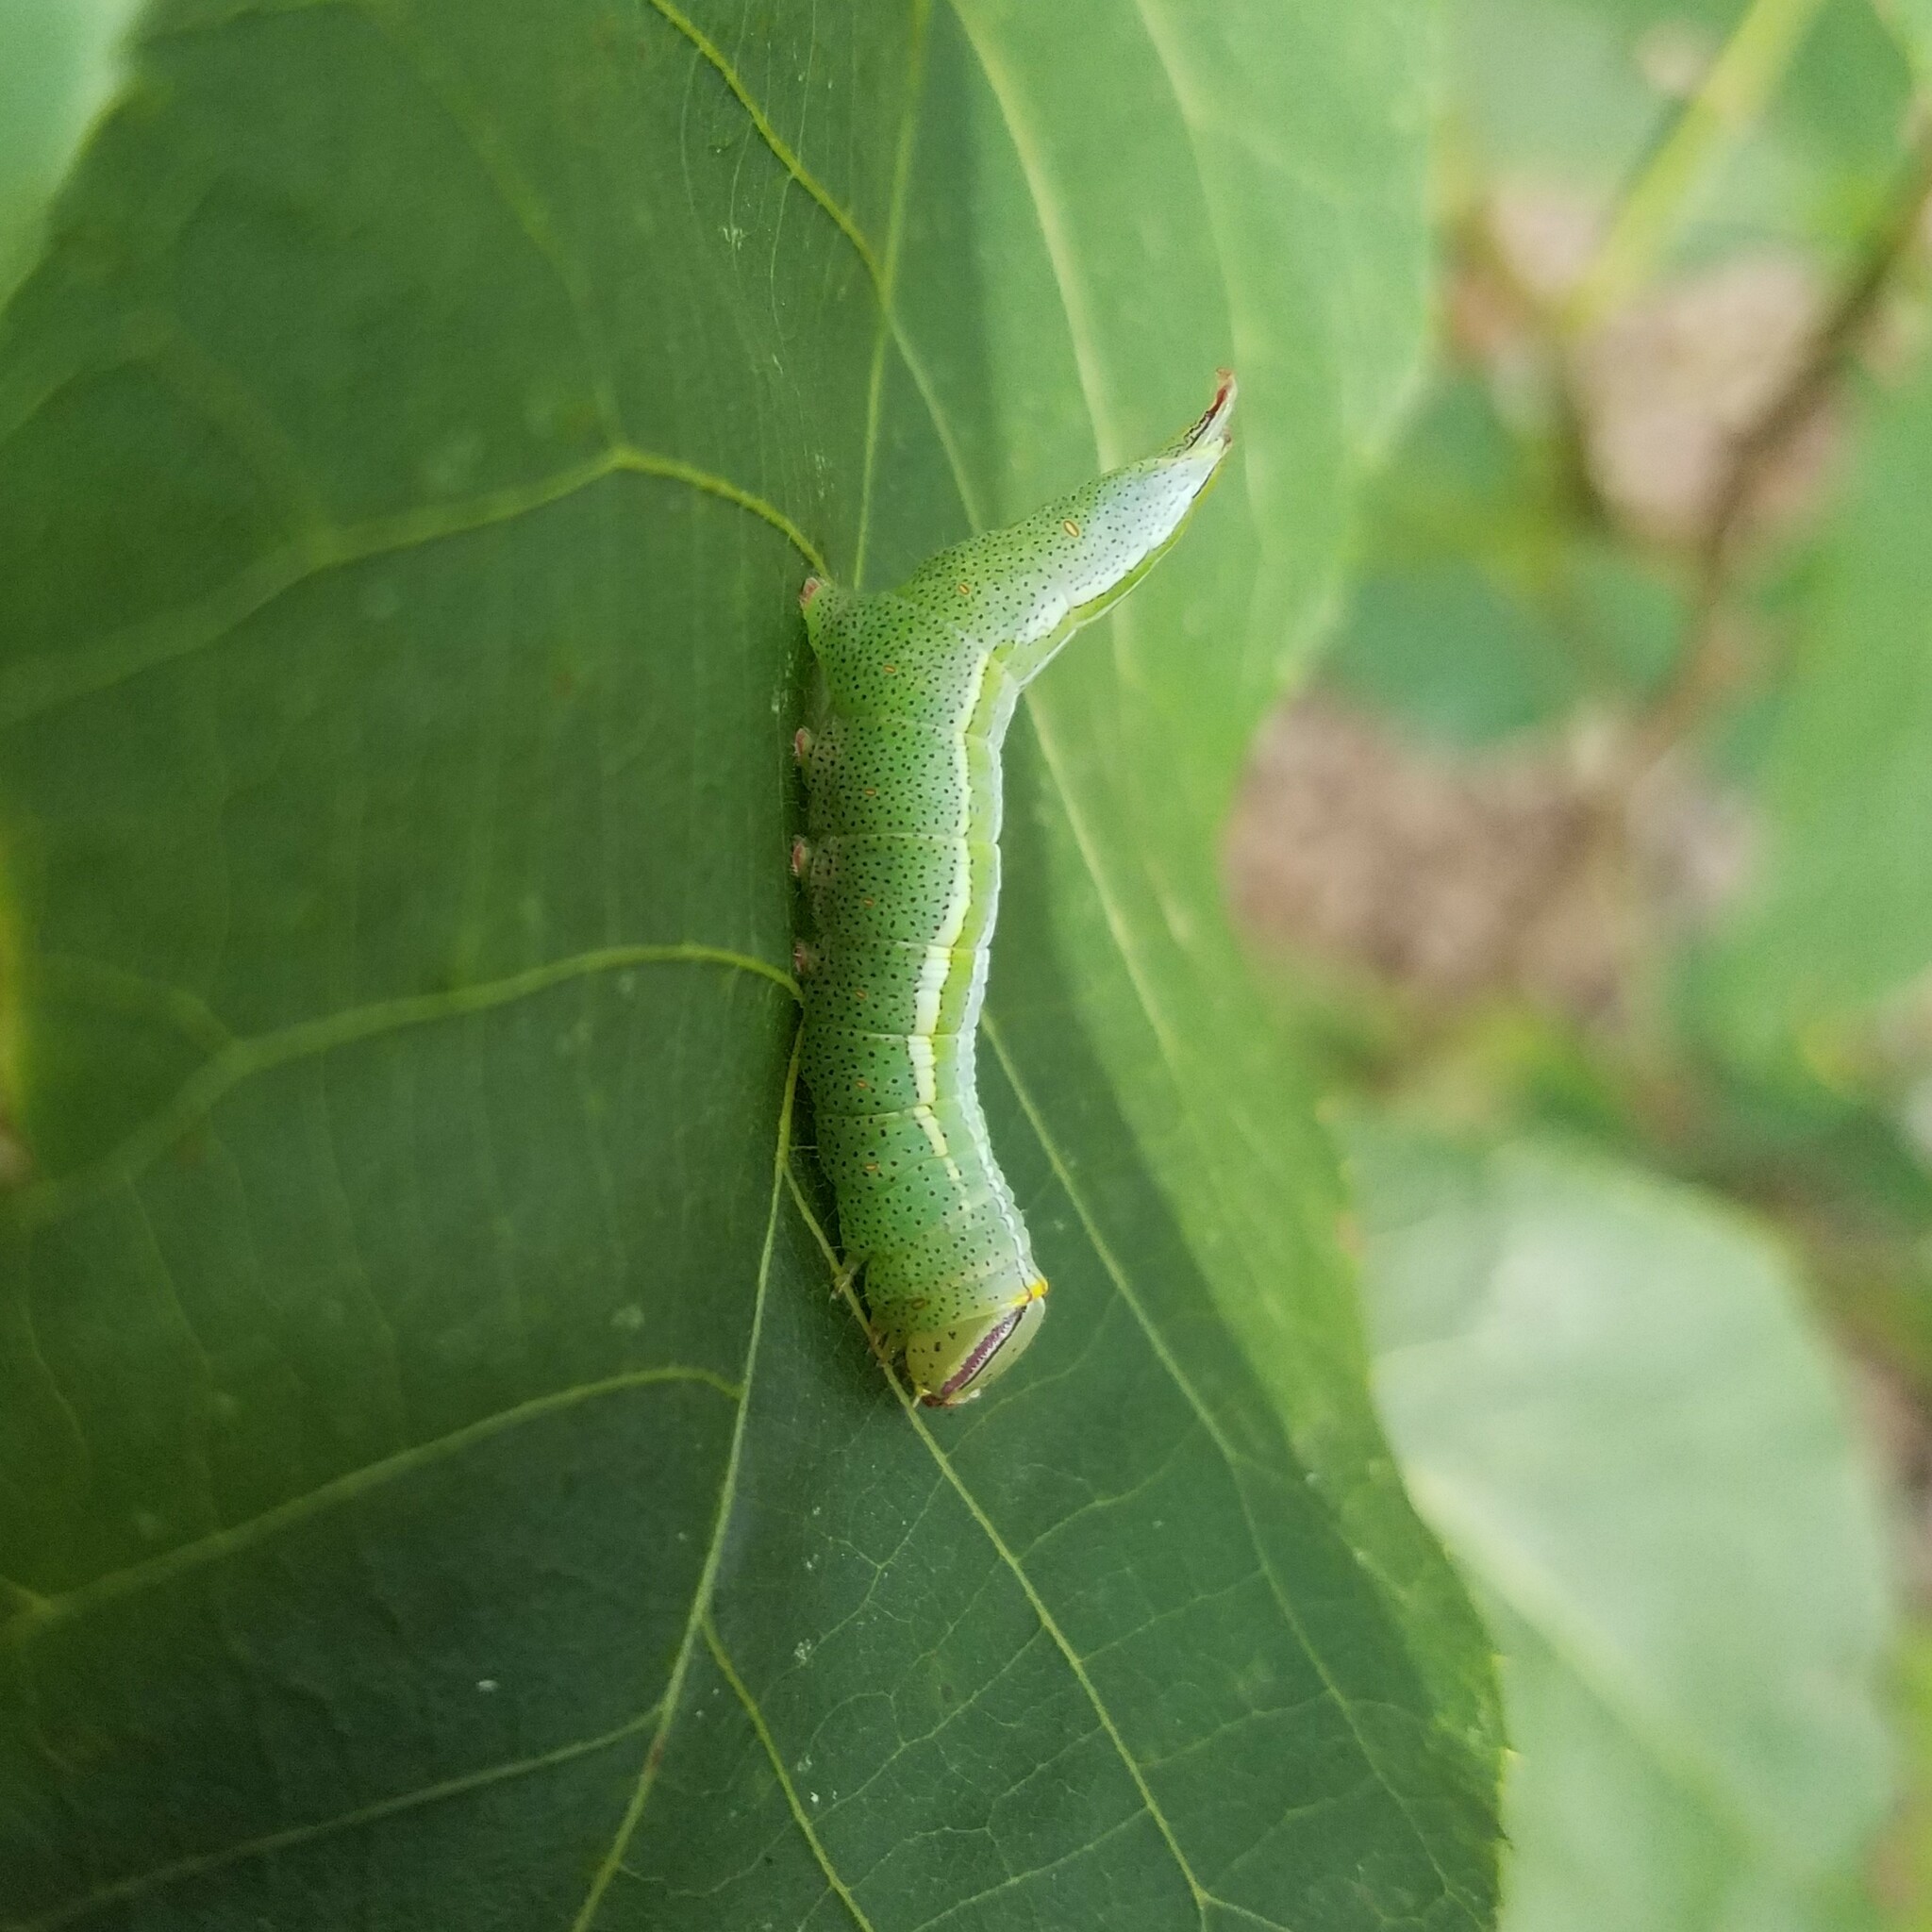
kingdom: Animalia
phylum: Arthropoda
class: Insecta
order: Lepidoptera
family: Notodontidae
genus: Disphragis
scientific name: Disphragis Cecrita guttivitta
